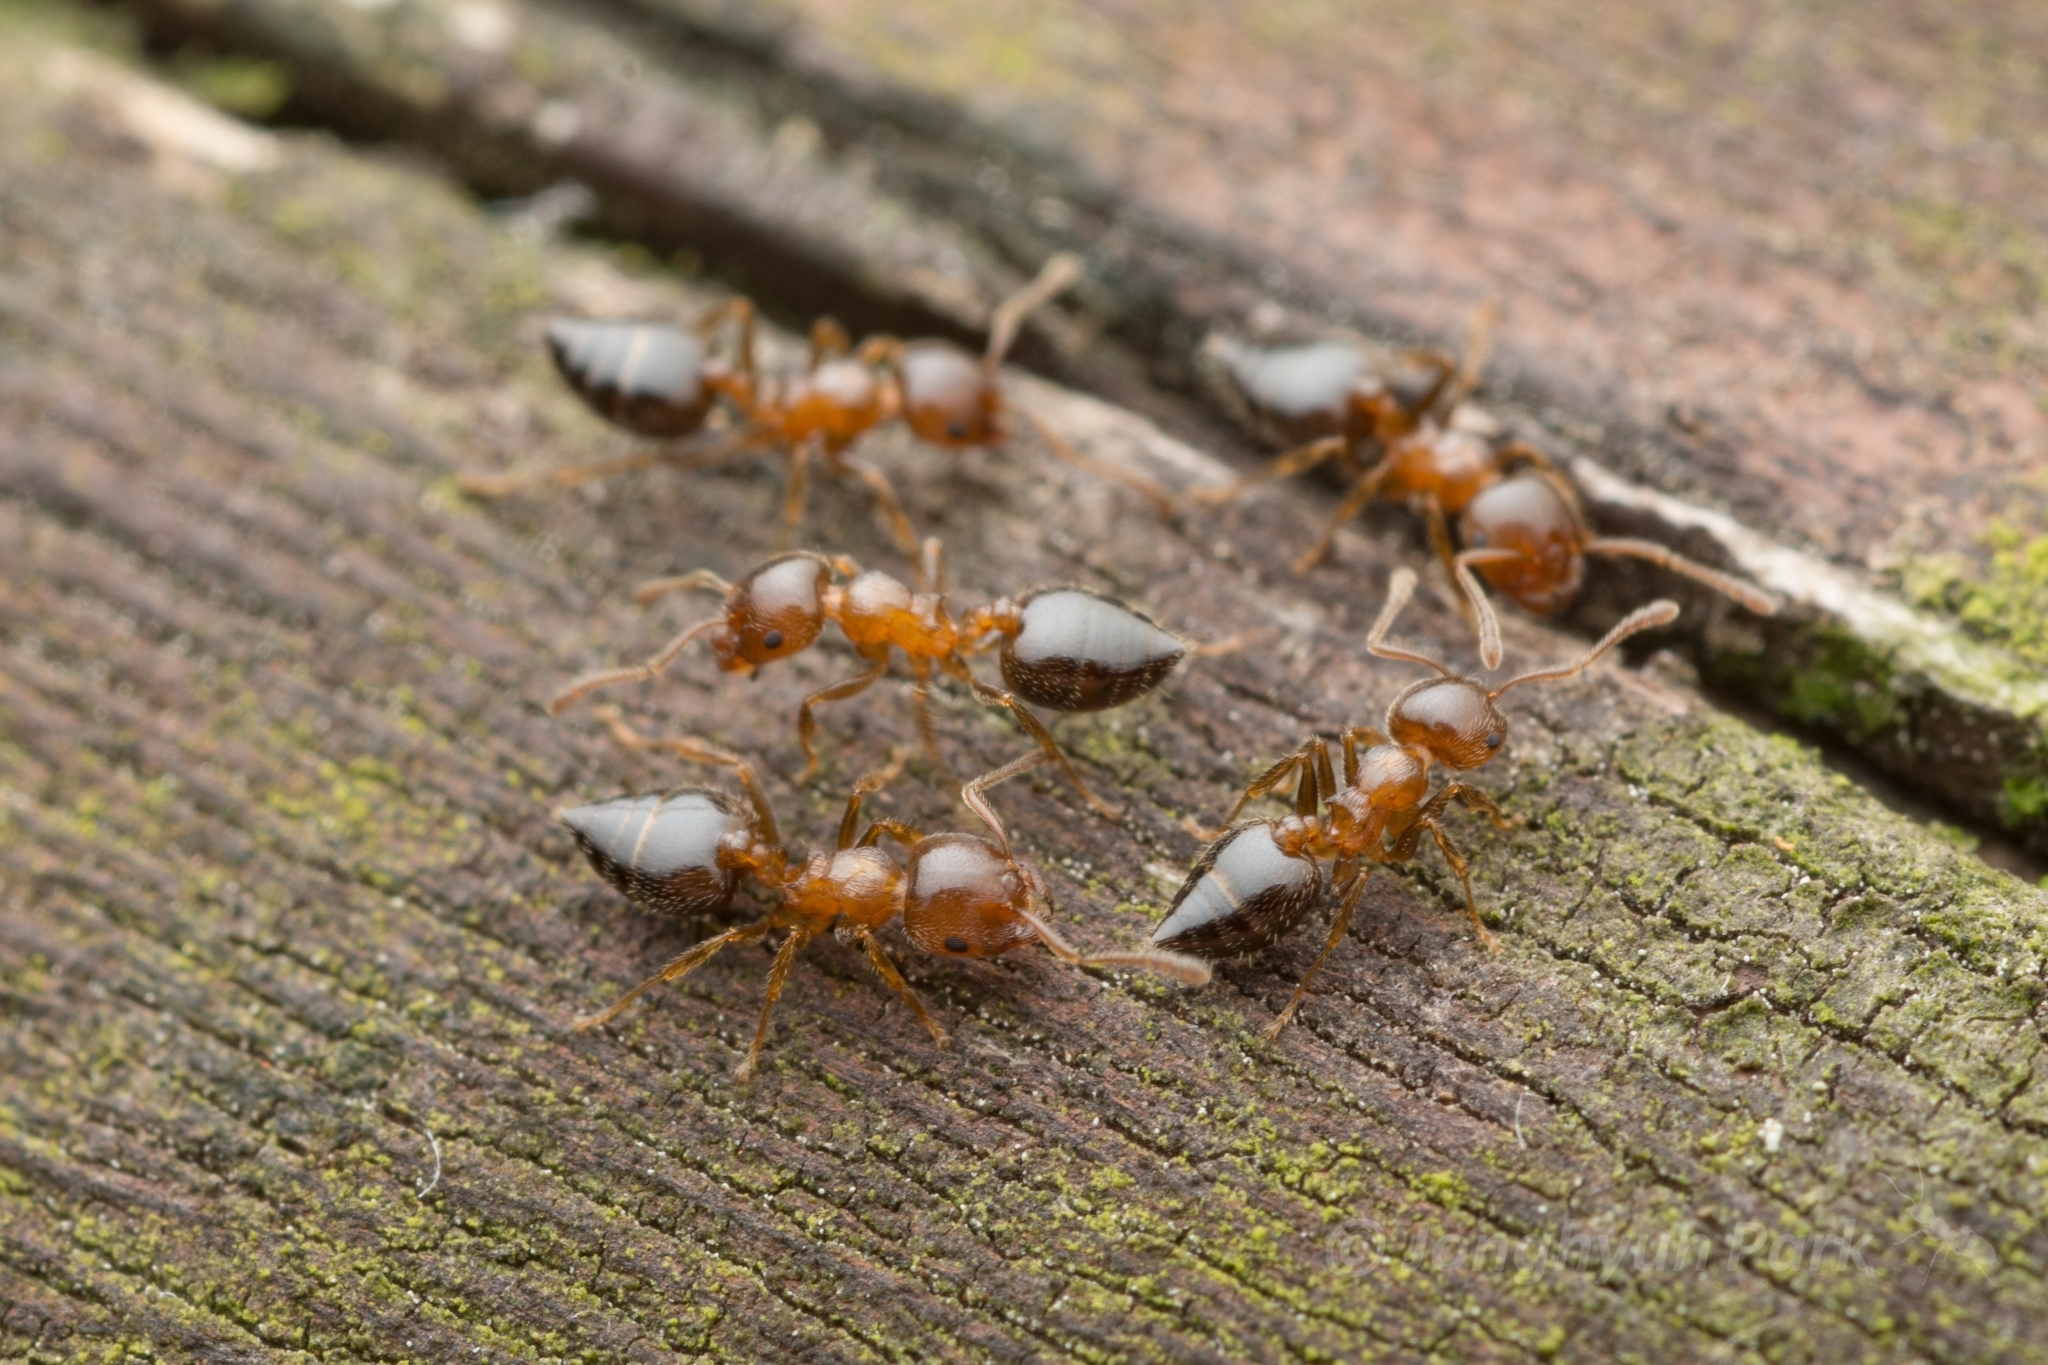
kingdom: Animalia
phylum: Arthropoda
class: Insecta
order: Hymenoptera
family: Formicidae
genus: Crematogaster
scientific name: Crematogaster matsumurai
